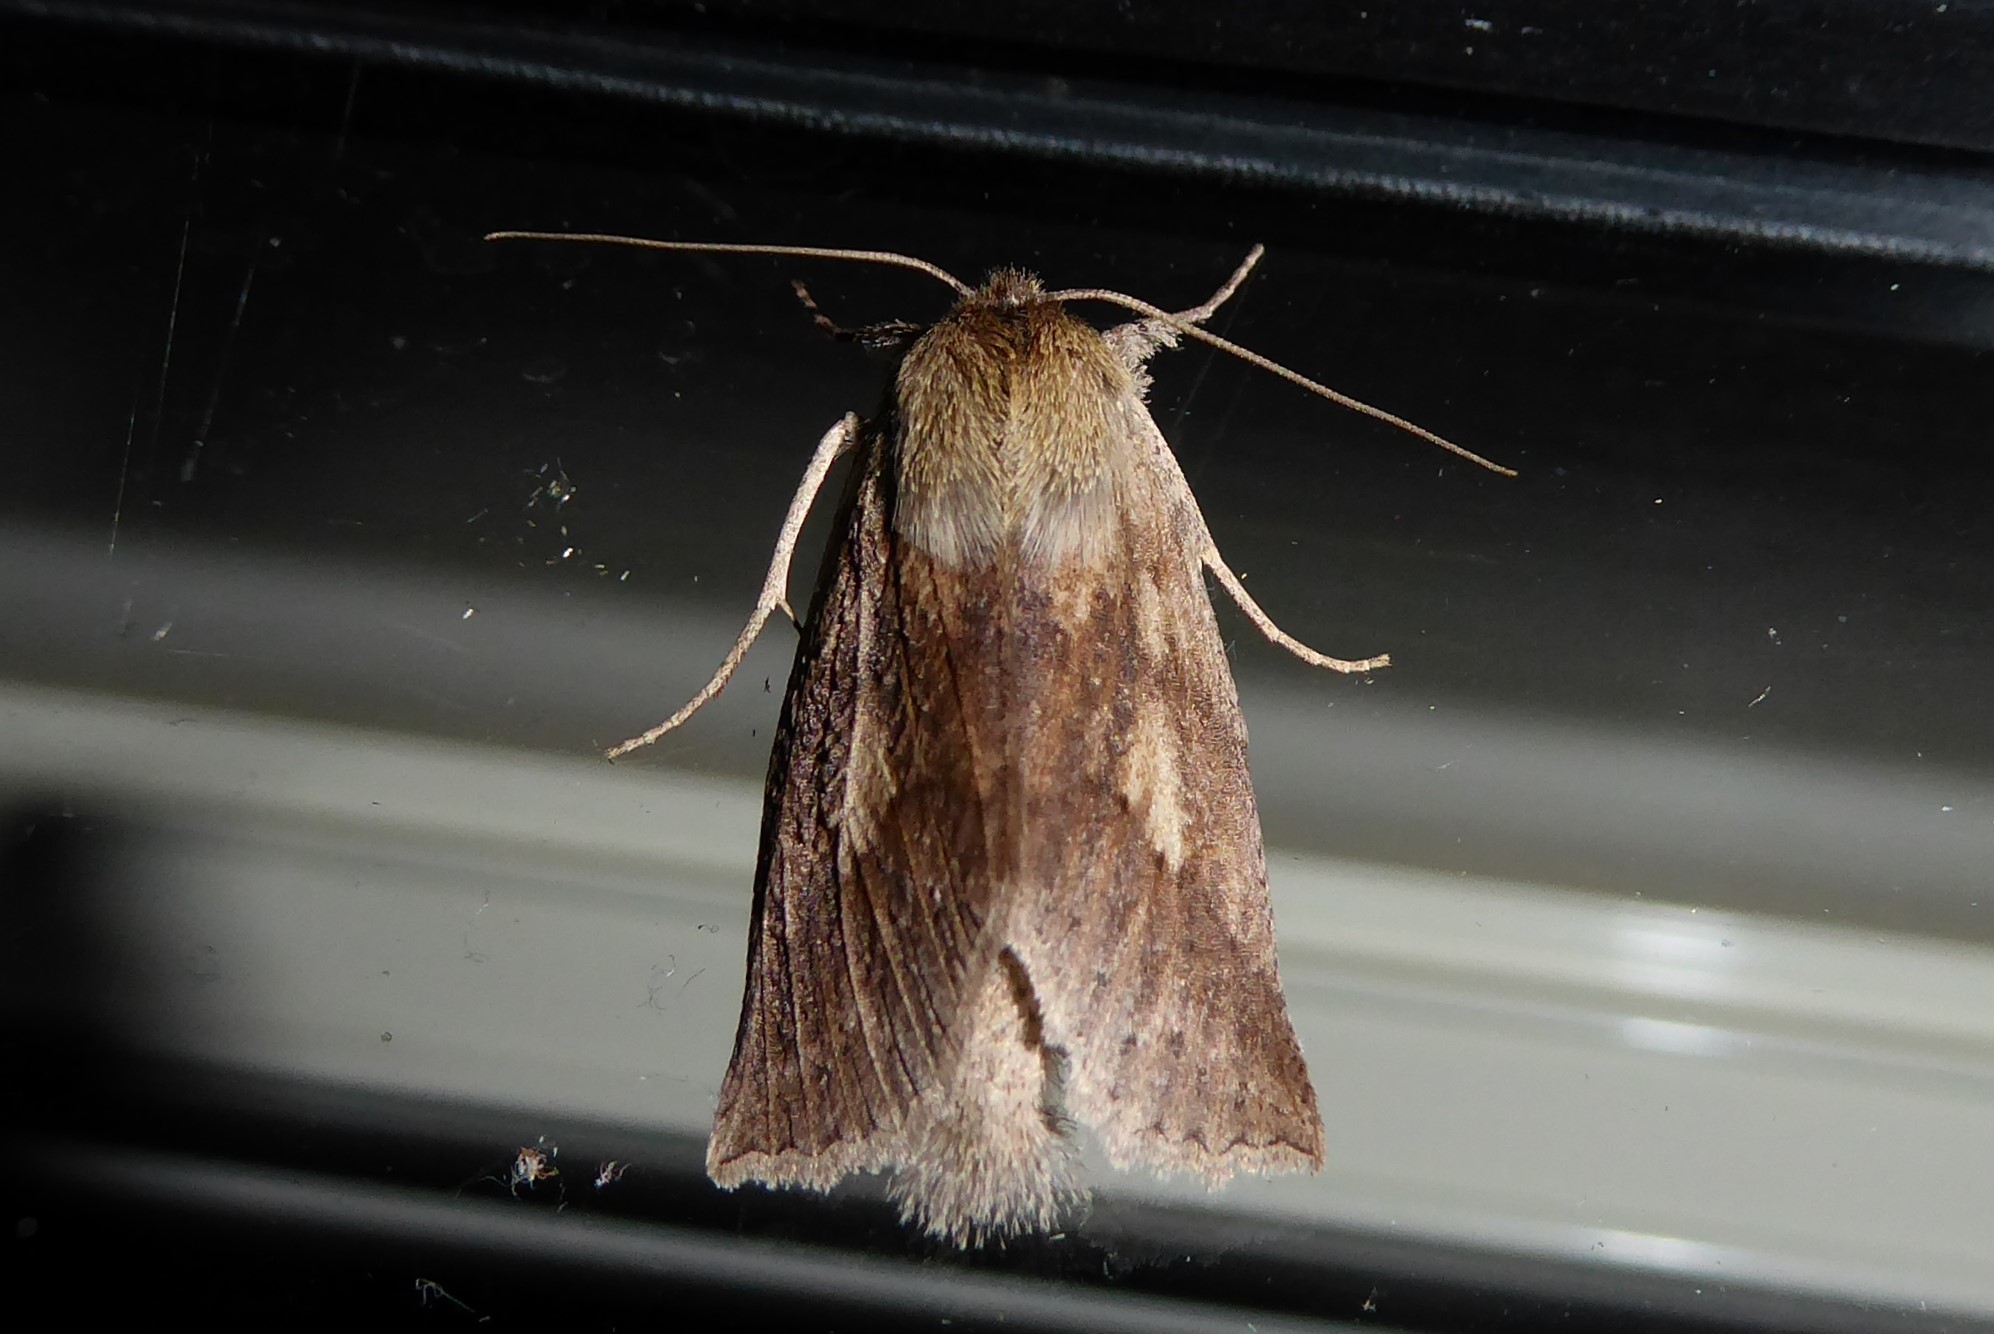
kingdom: Animalia
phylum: Arthropoda
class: Insecta
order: Lepidoptera
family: Geometridae
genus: Declana
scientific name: Declana leptomera
